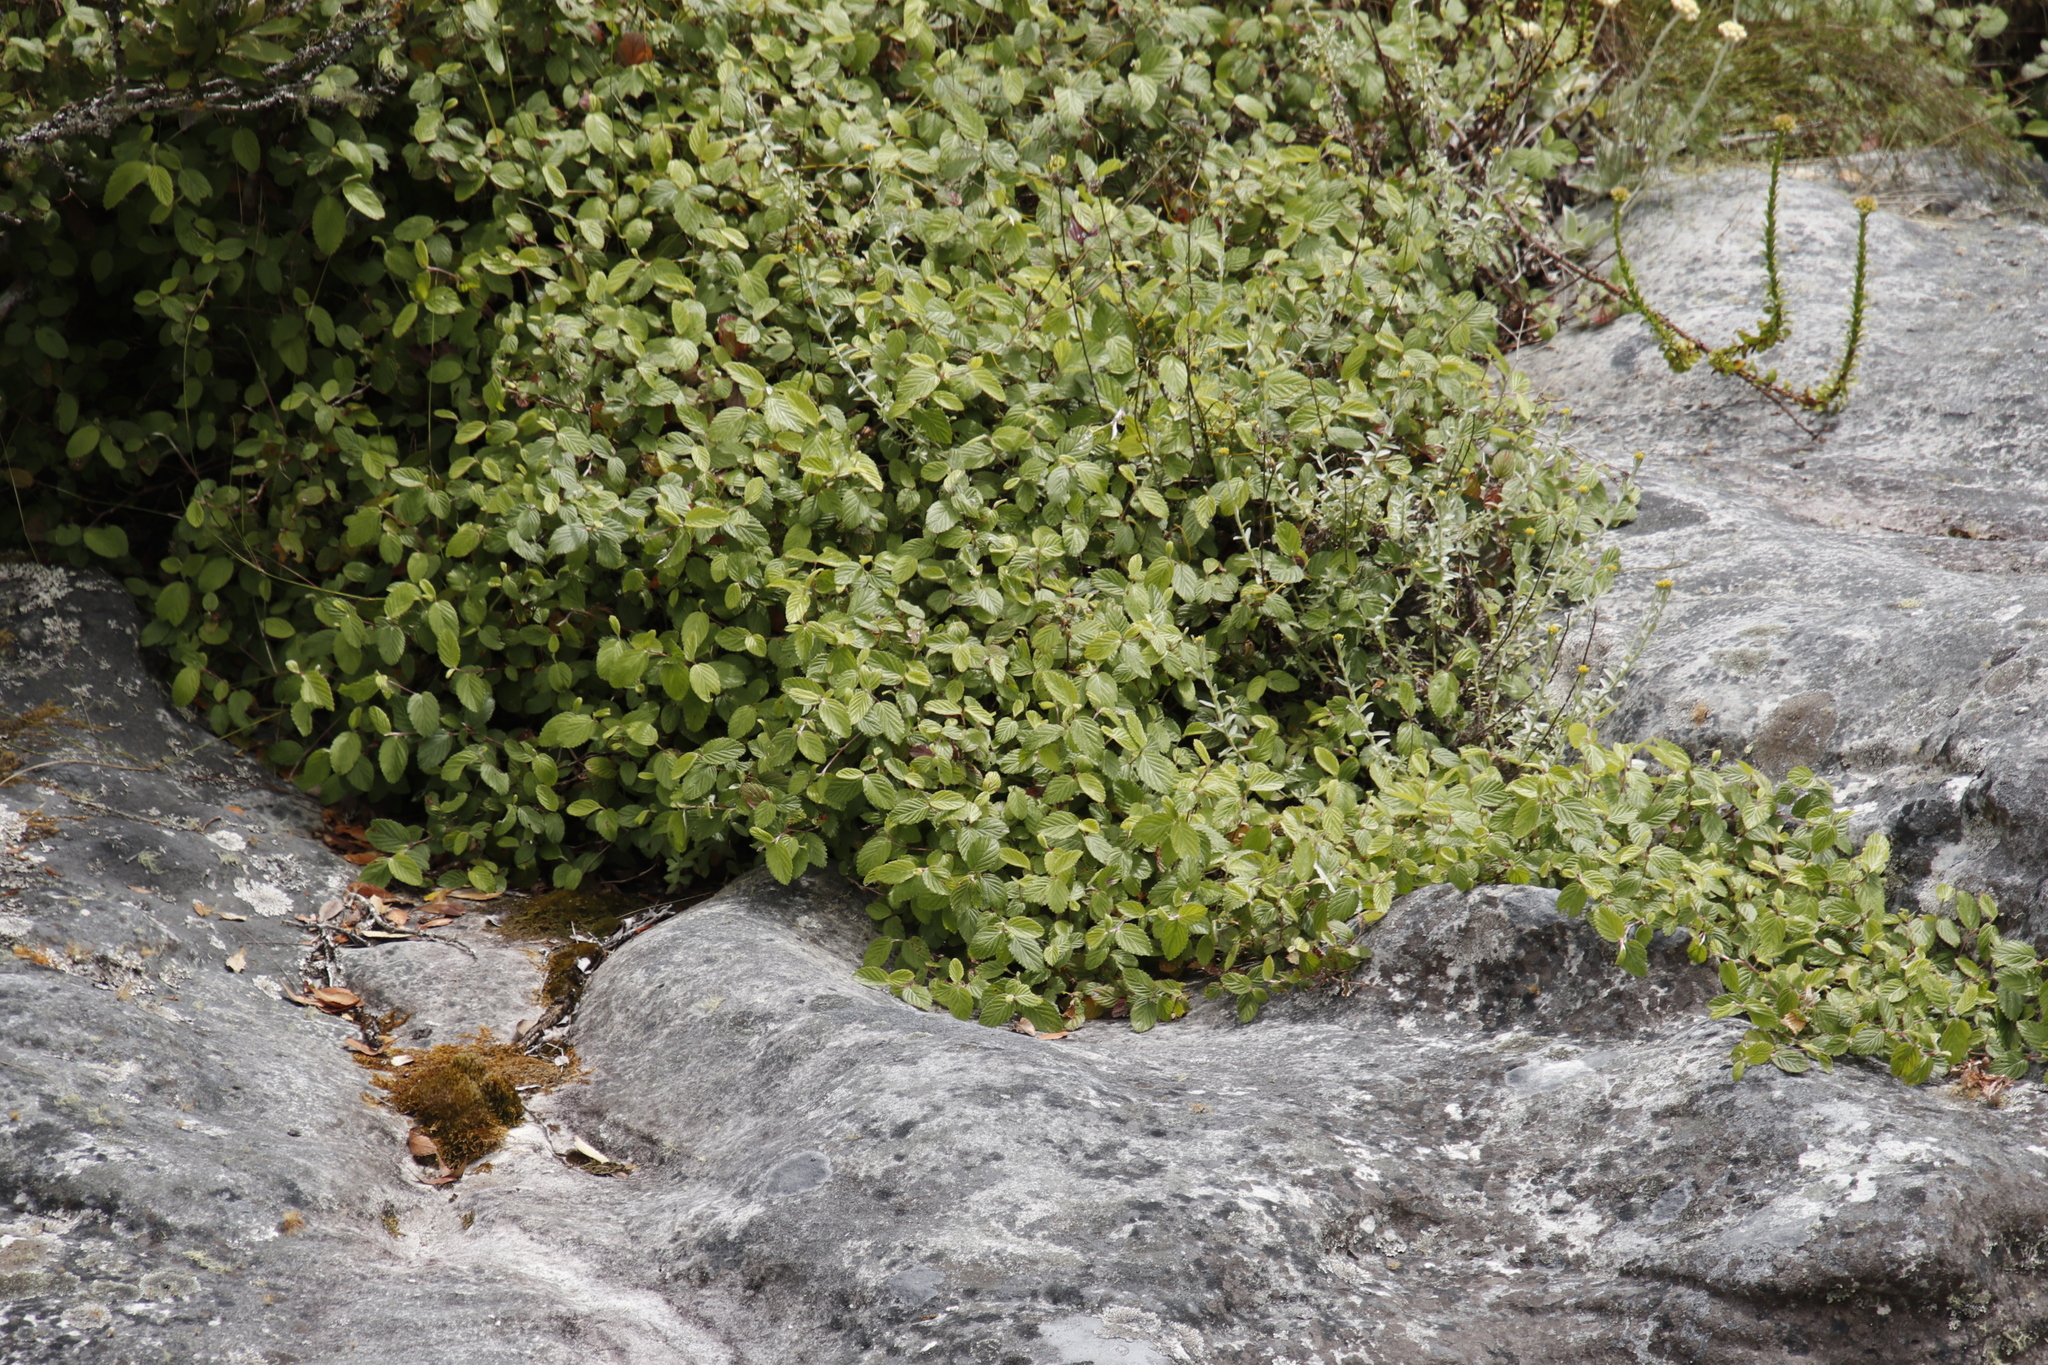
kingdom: Plantae
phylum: Tracheophyta
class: Magnoliopsida
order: Rosales
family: Rosaceae
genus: Cliffortia
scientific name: Cliffortia odorata
